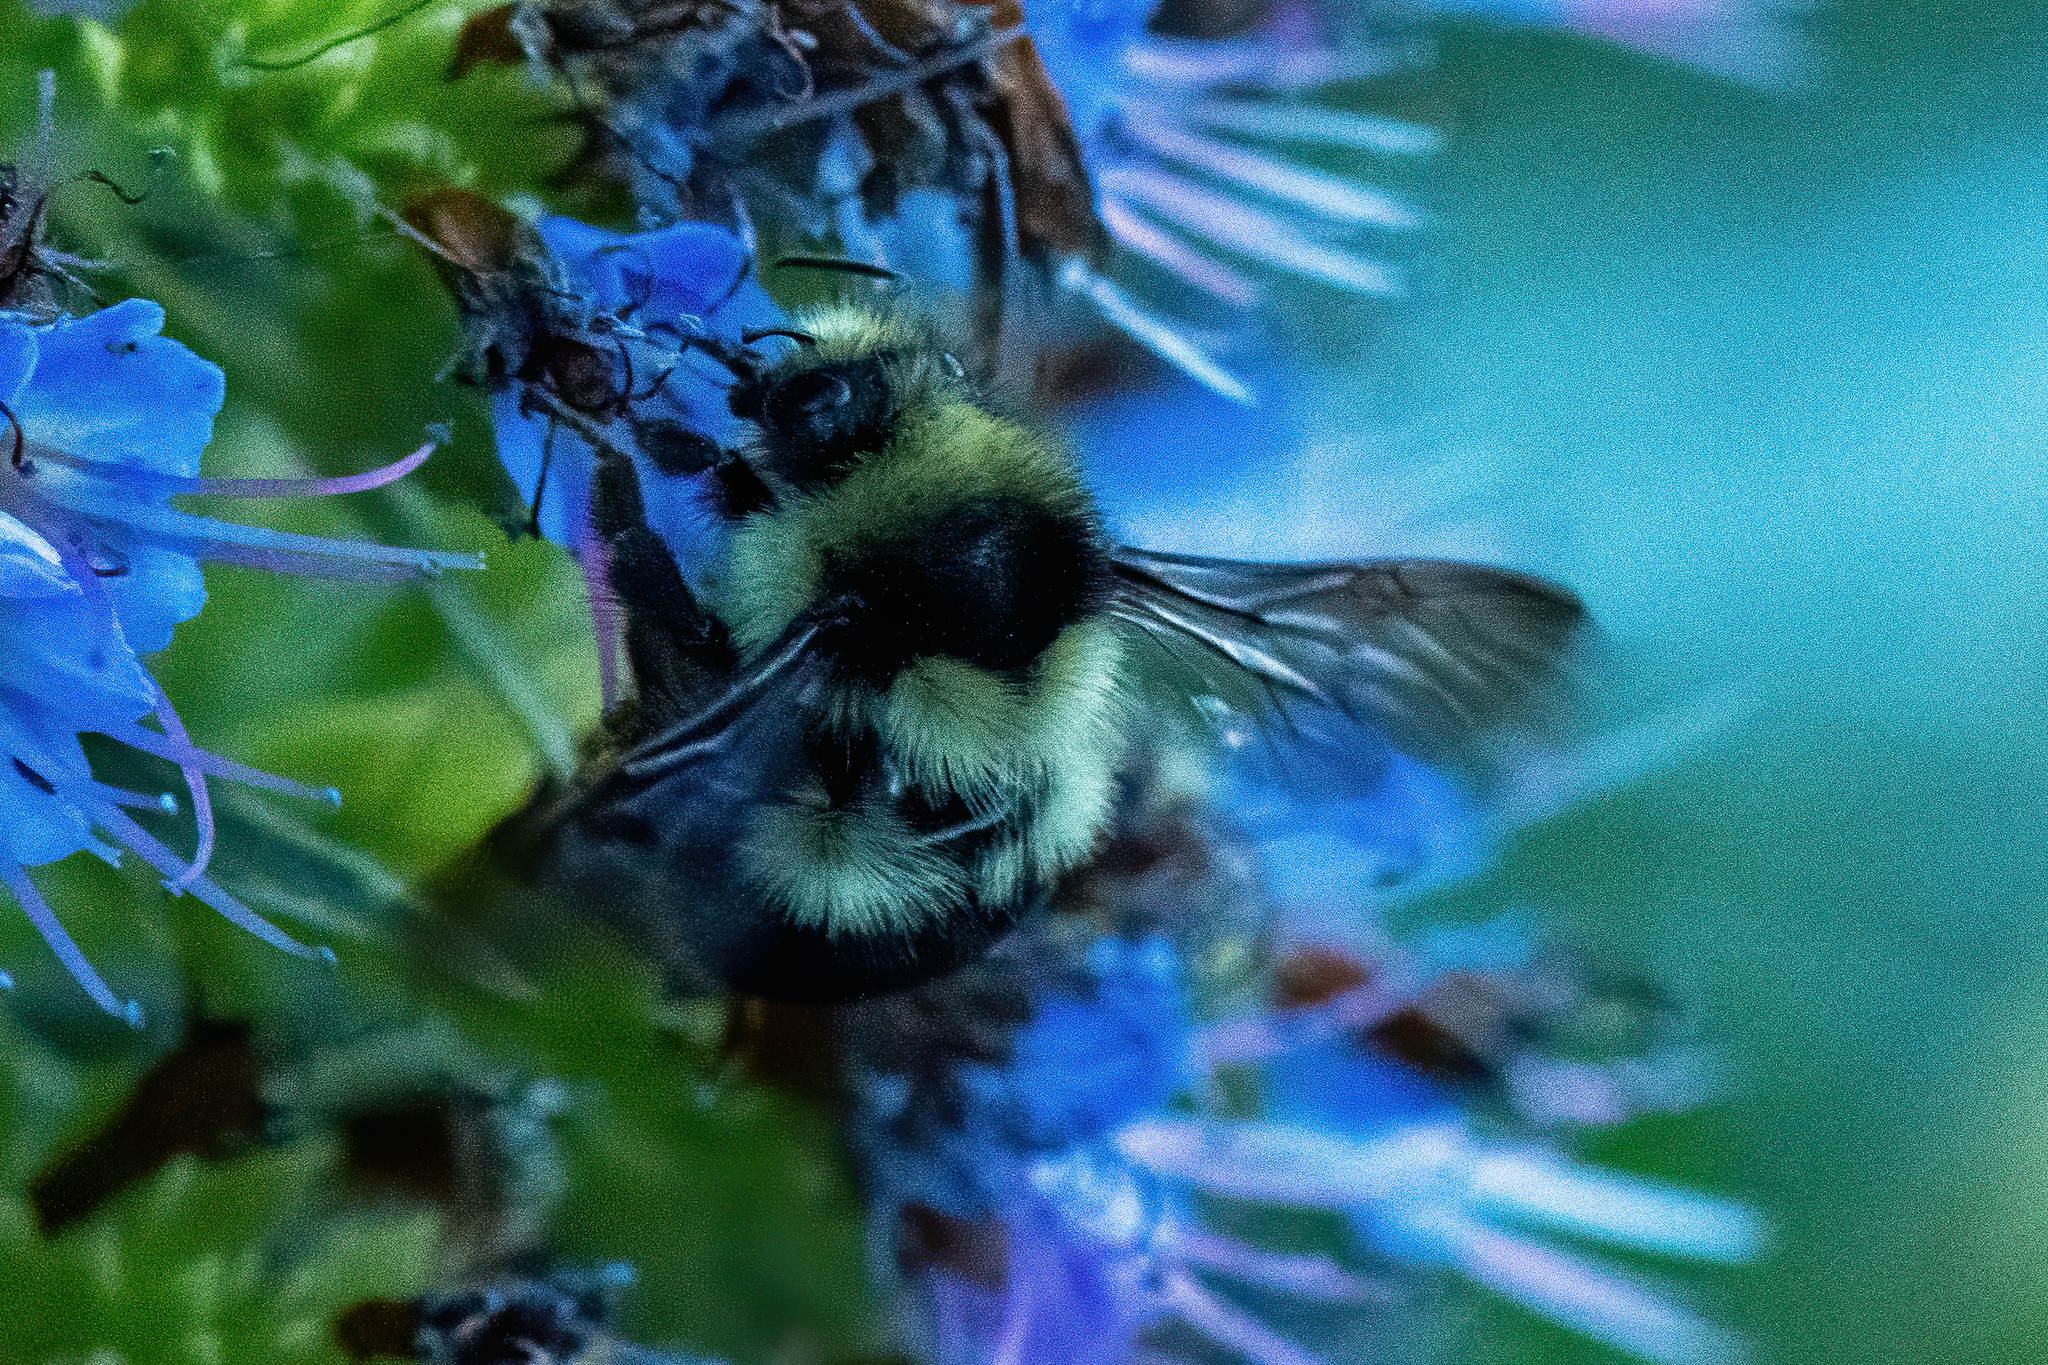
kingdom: Animalia
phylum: Arthropoda
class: Insecta
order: Hymenoptera
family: Apidae
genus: Bombus
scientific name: Bombus melanopygus
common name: Black tail bumble bee
